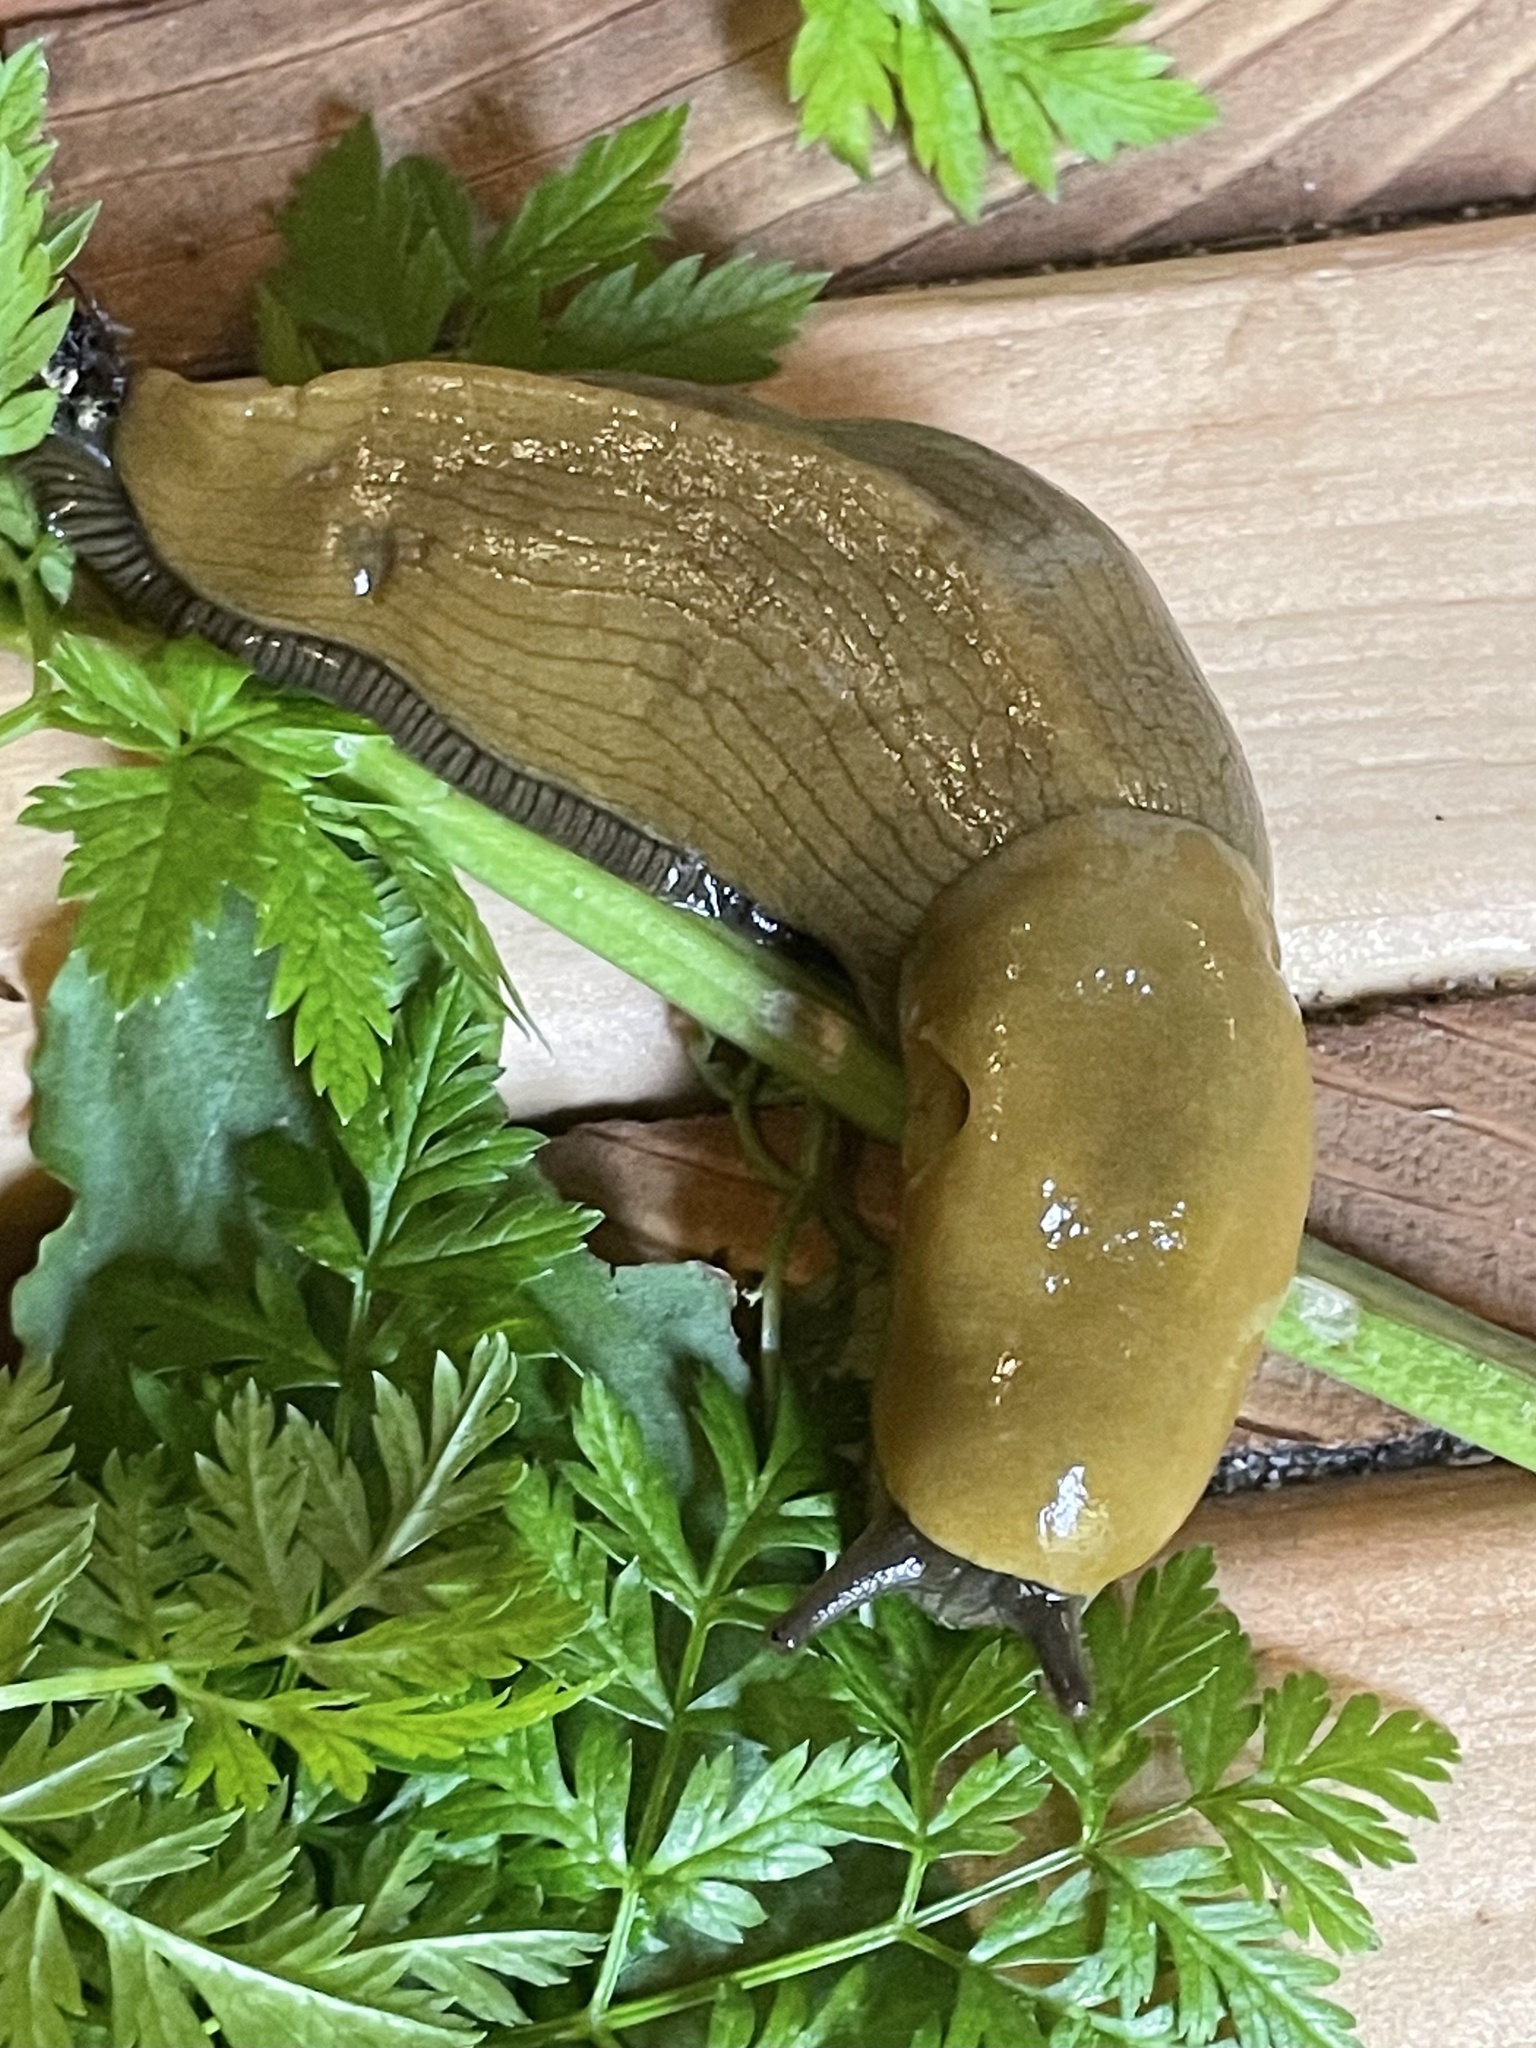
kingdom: Animalia
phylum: Mollusca
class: Gastropoda
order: Stylommatophora
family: Ariolimacidae
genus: Ariolimax
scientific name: Ariolimax californicus
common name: California banana slug
